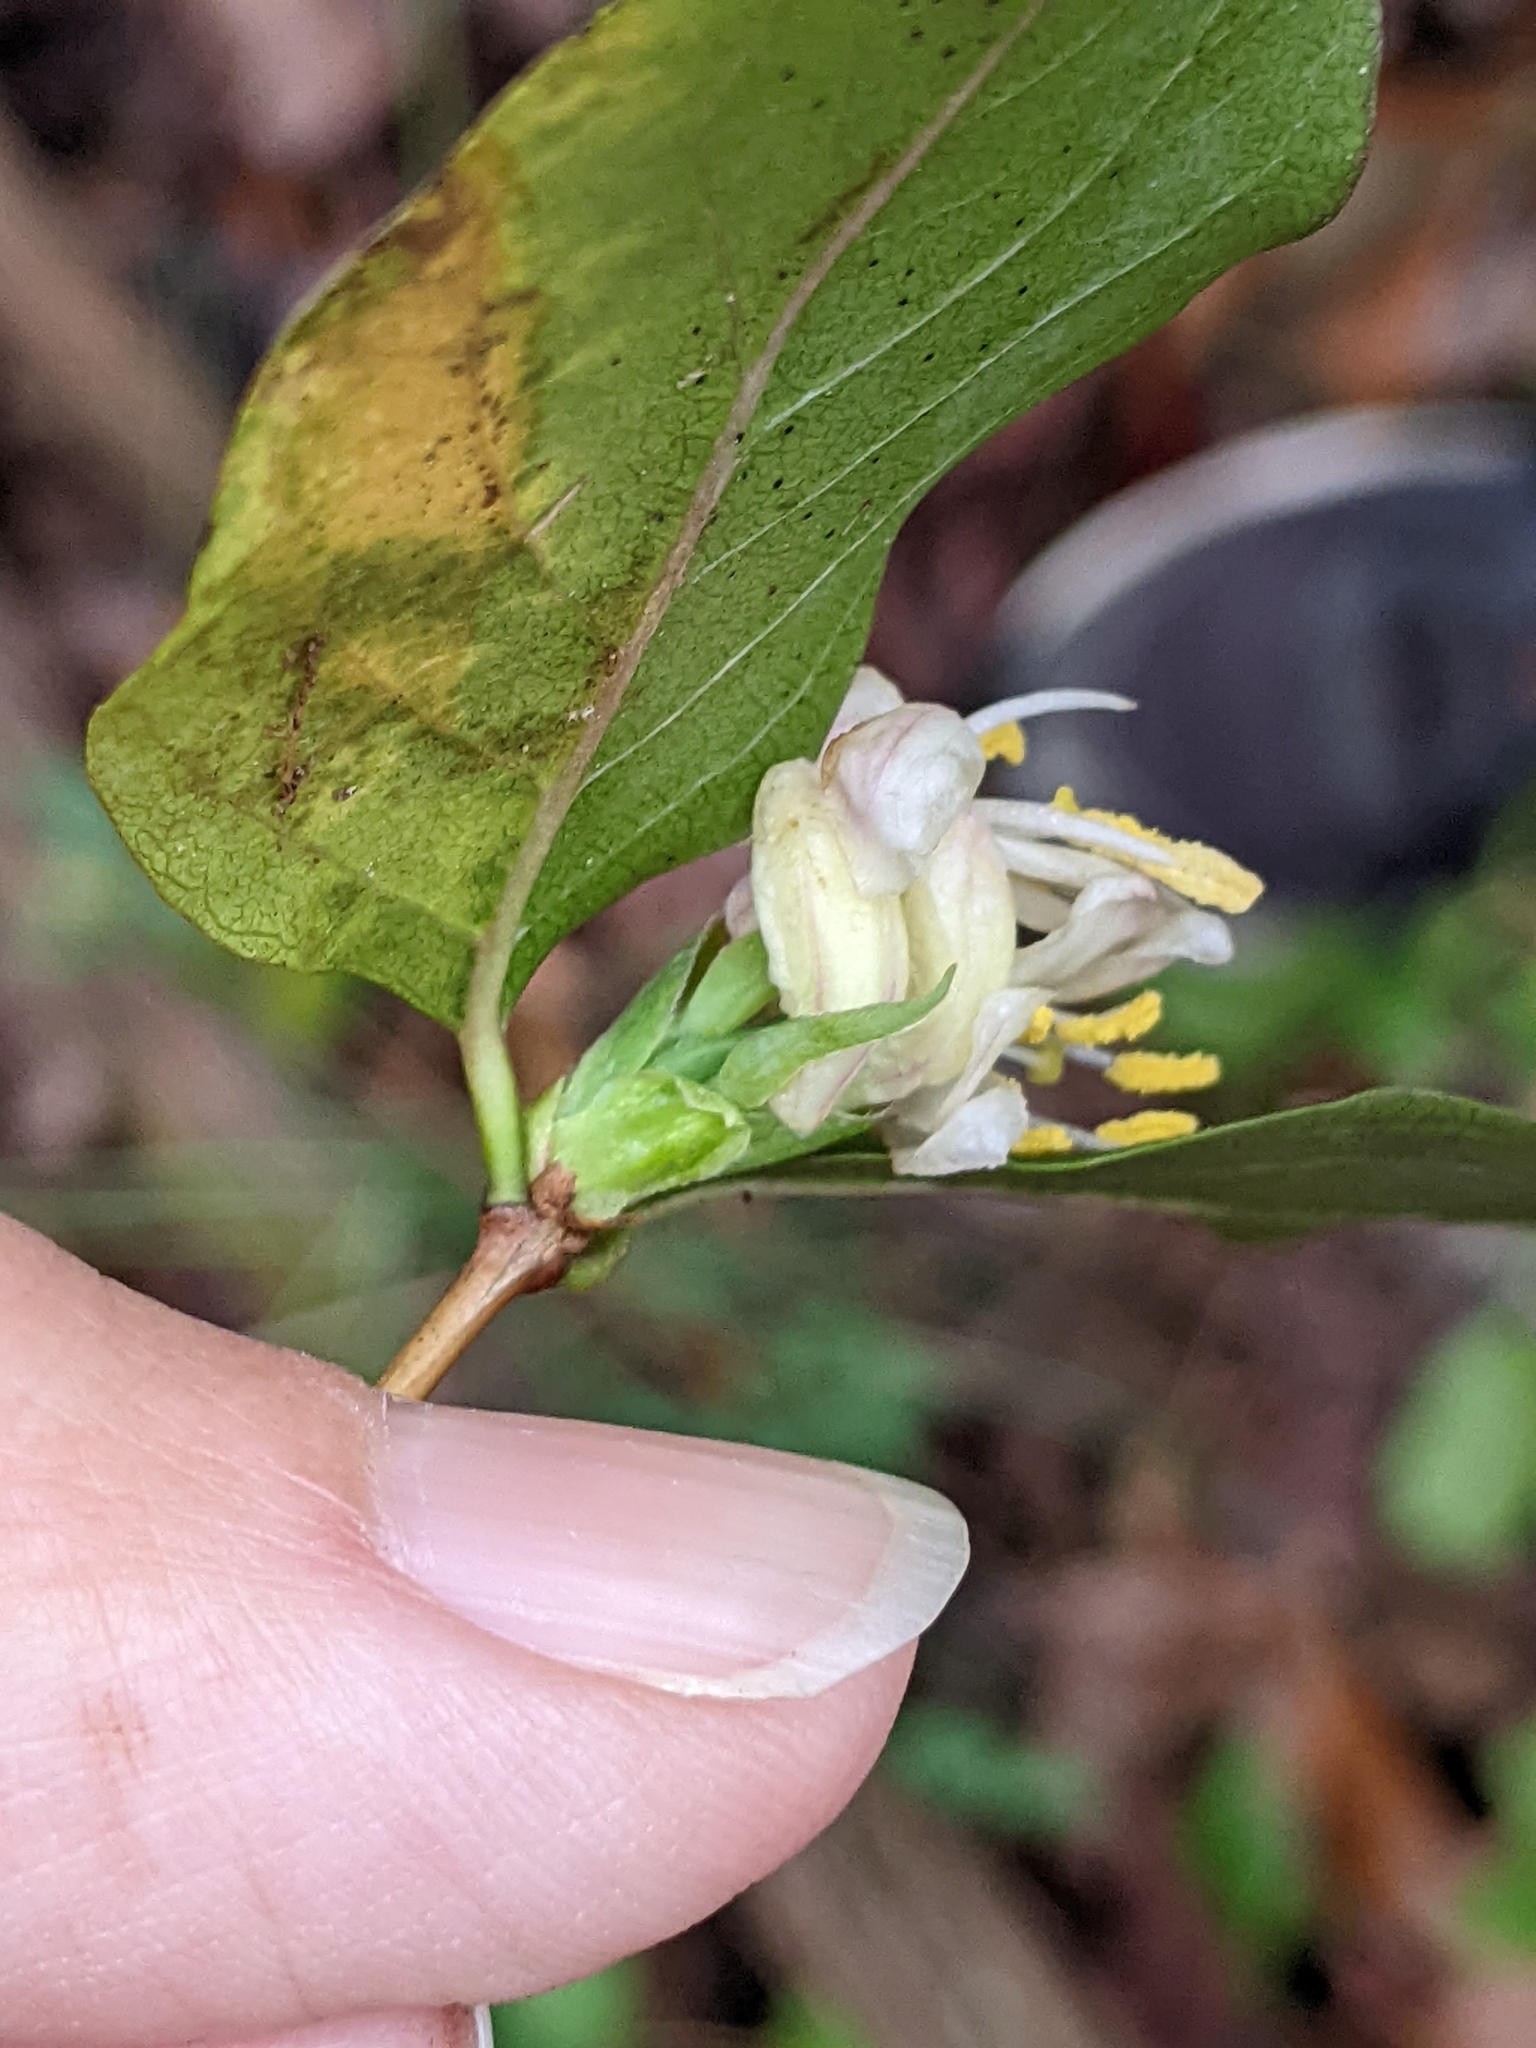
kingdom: Plantae
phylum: Tracheophyta
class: Magnoliopsida
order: Dipsacales
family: Caprifoliaceae
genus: Lonicera
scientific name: Lonicera fragrantissima
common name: Fragrant honeysuckle
